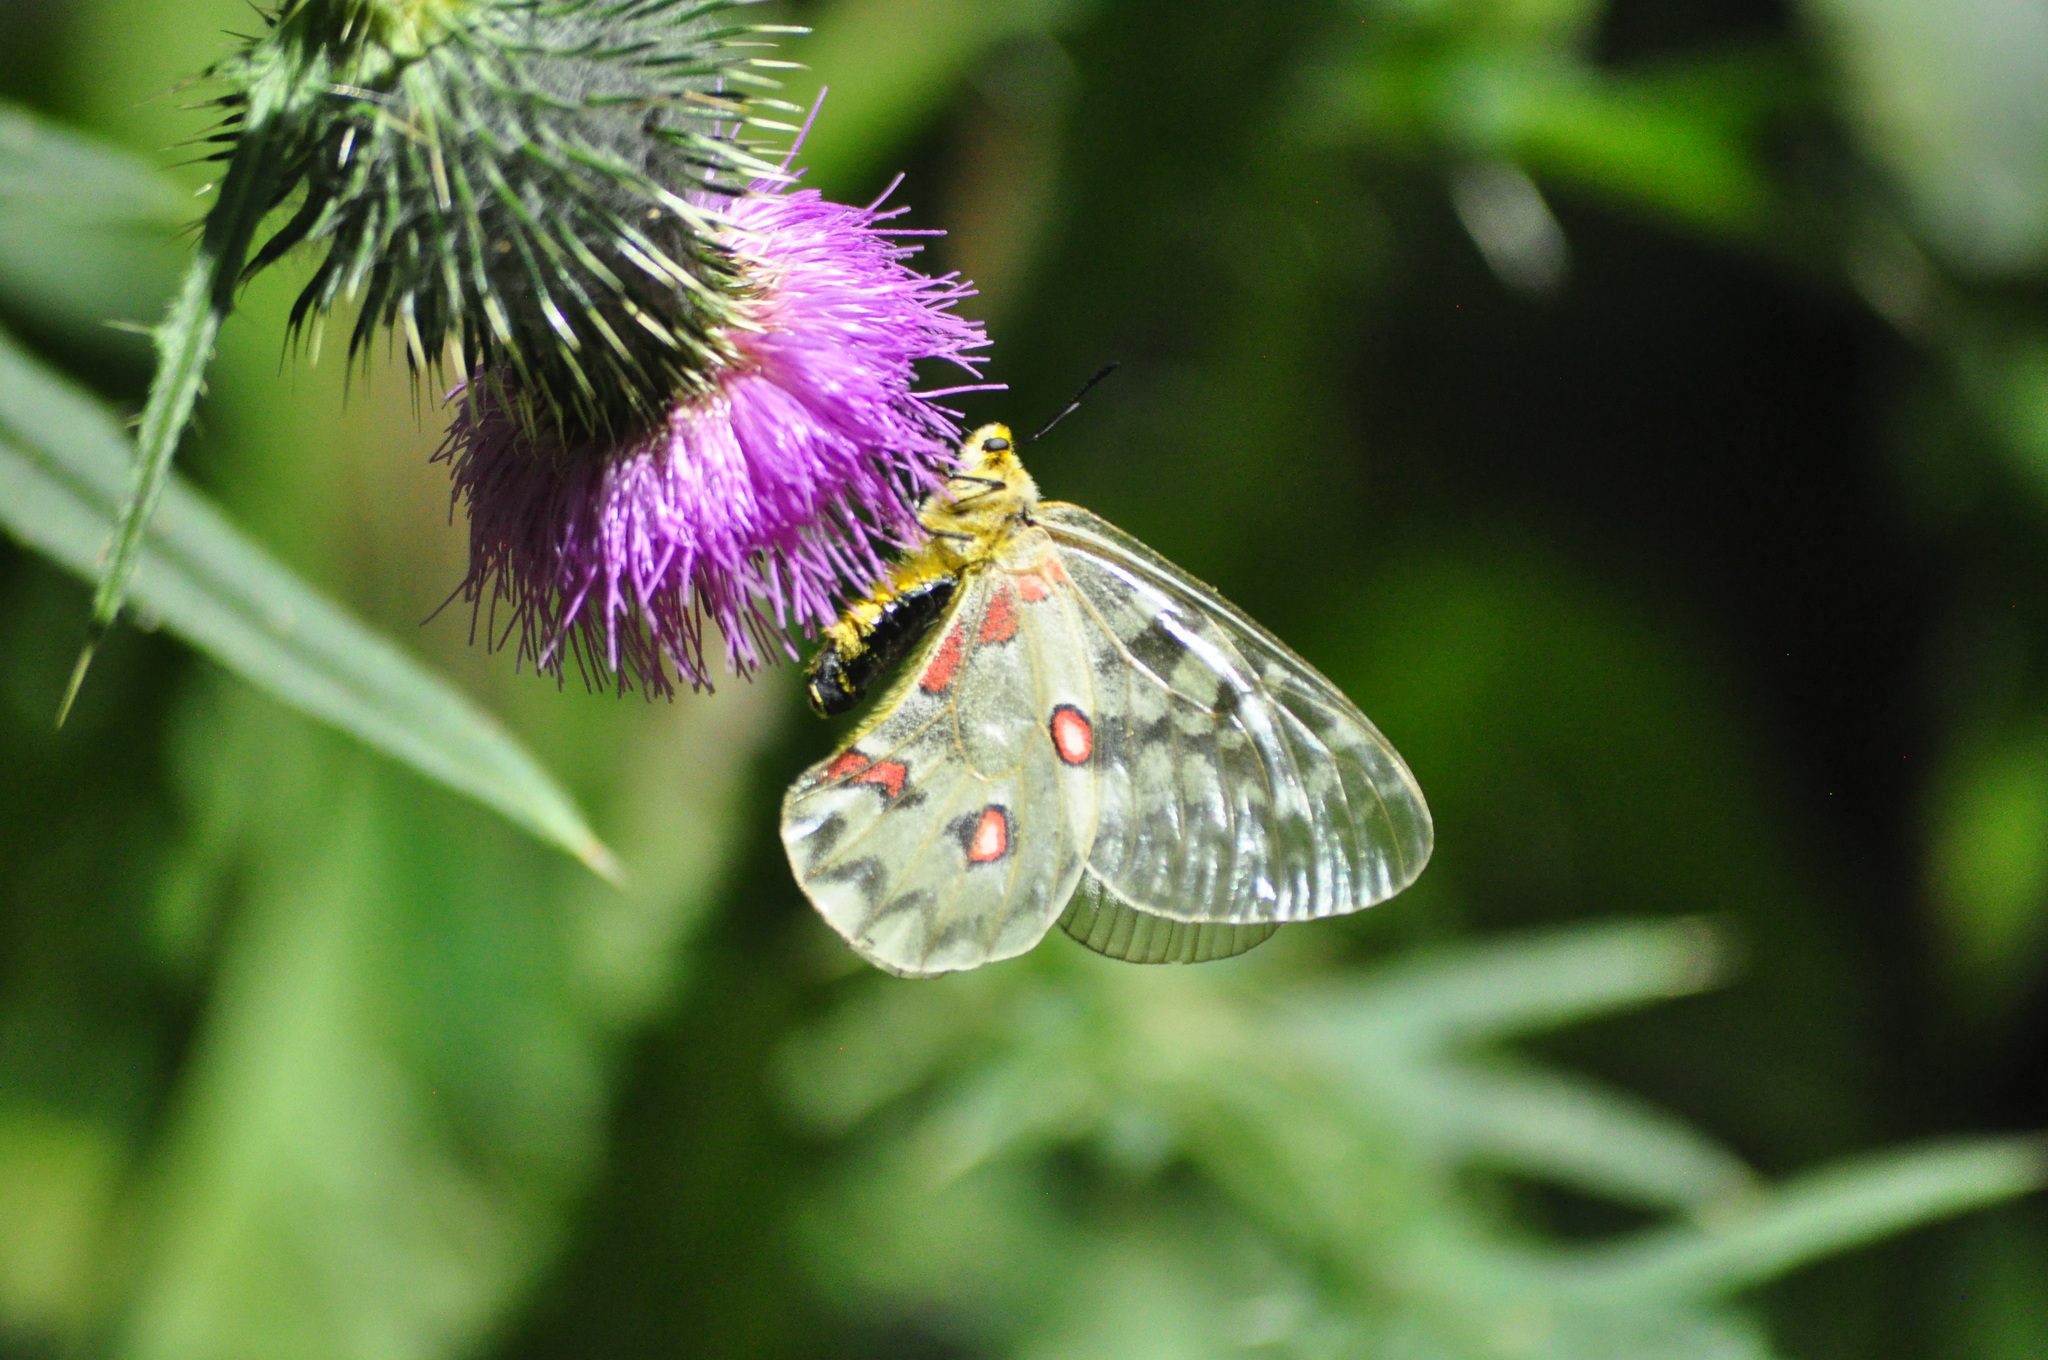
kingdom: Animalia
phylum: Arthropoda
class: Insecta
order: Lepidoptera
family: Papilionidae
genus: Parnassius
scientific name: Parnassius clodius
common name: American apollo
